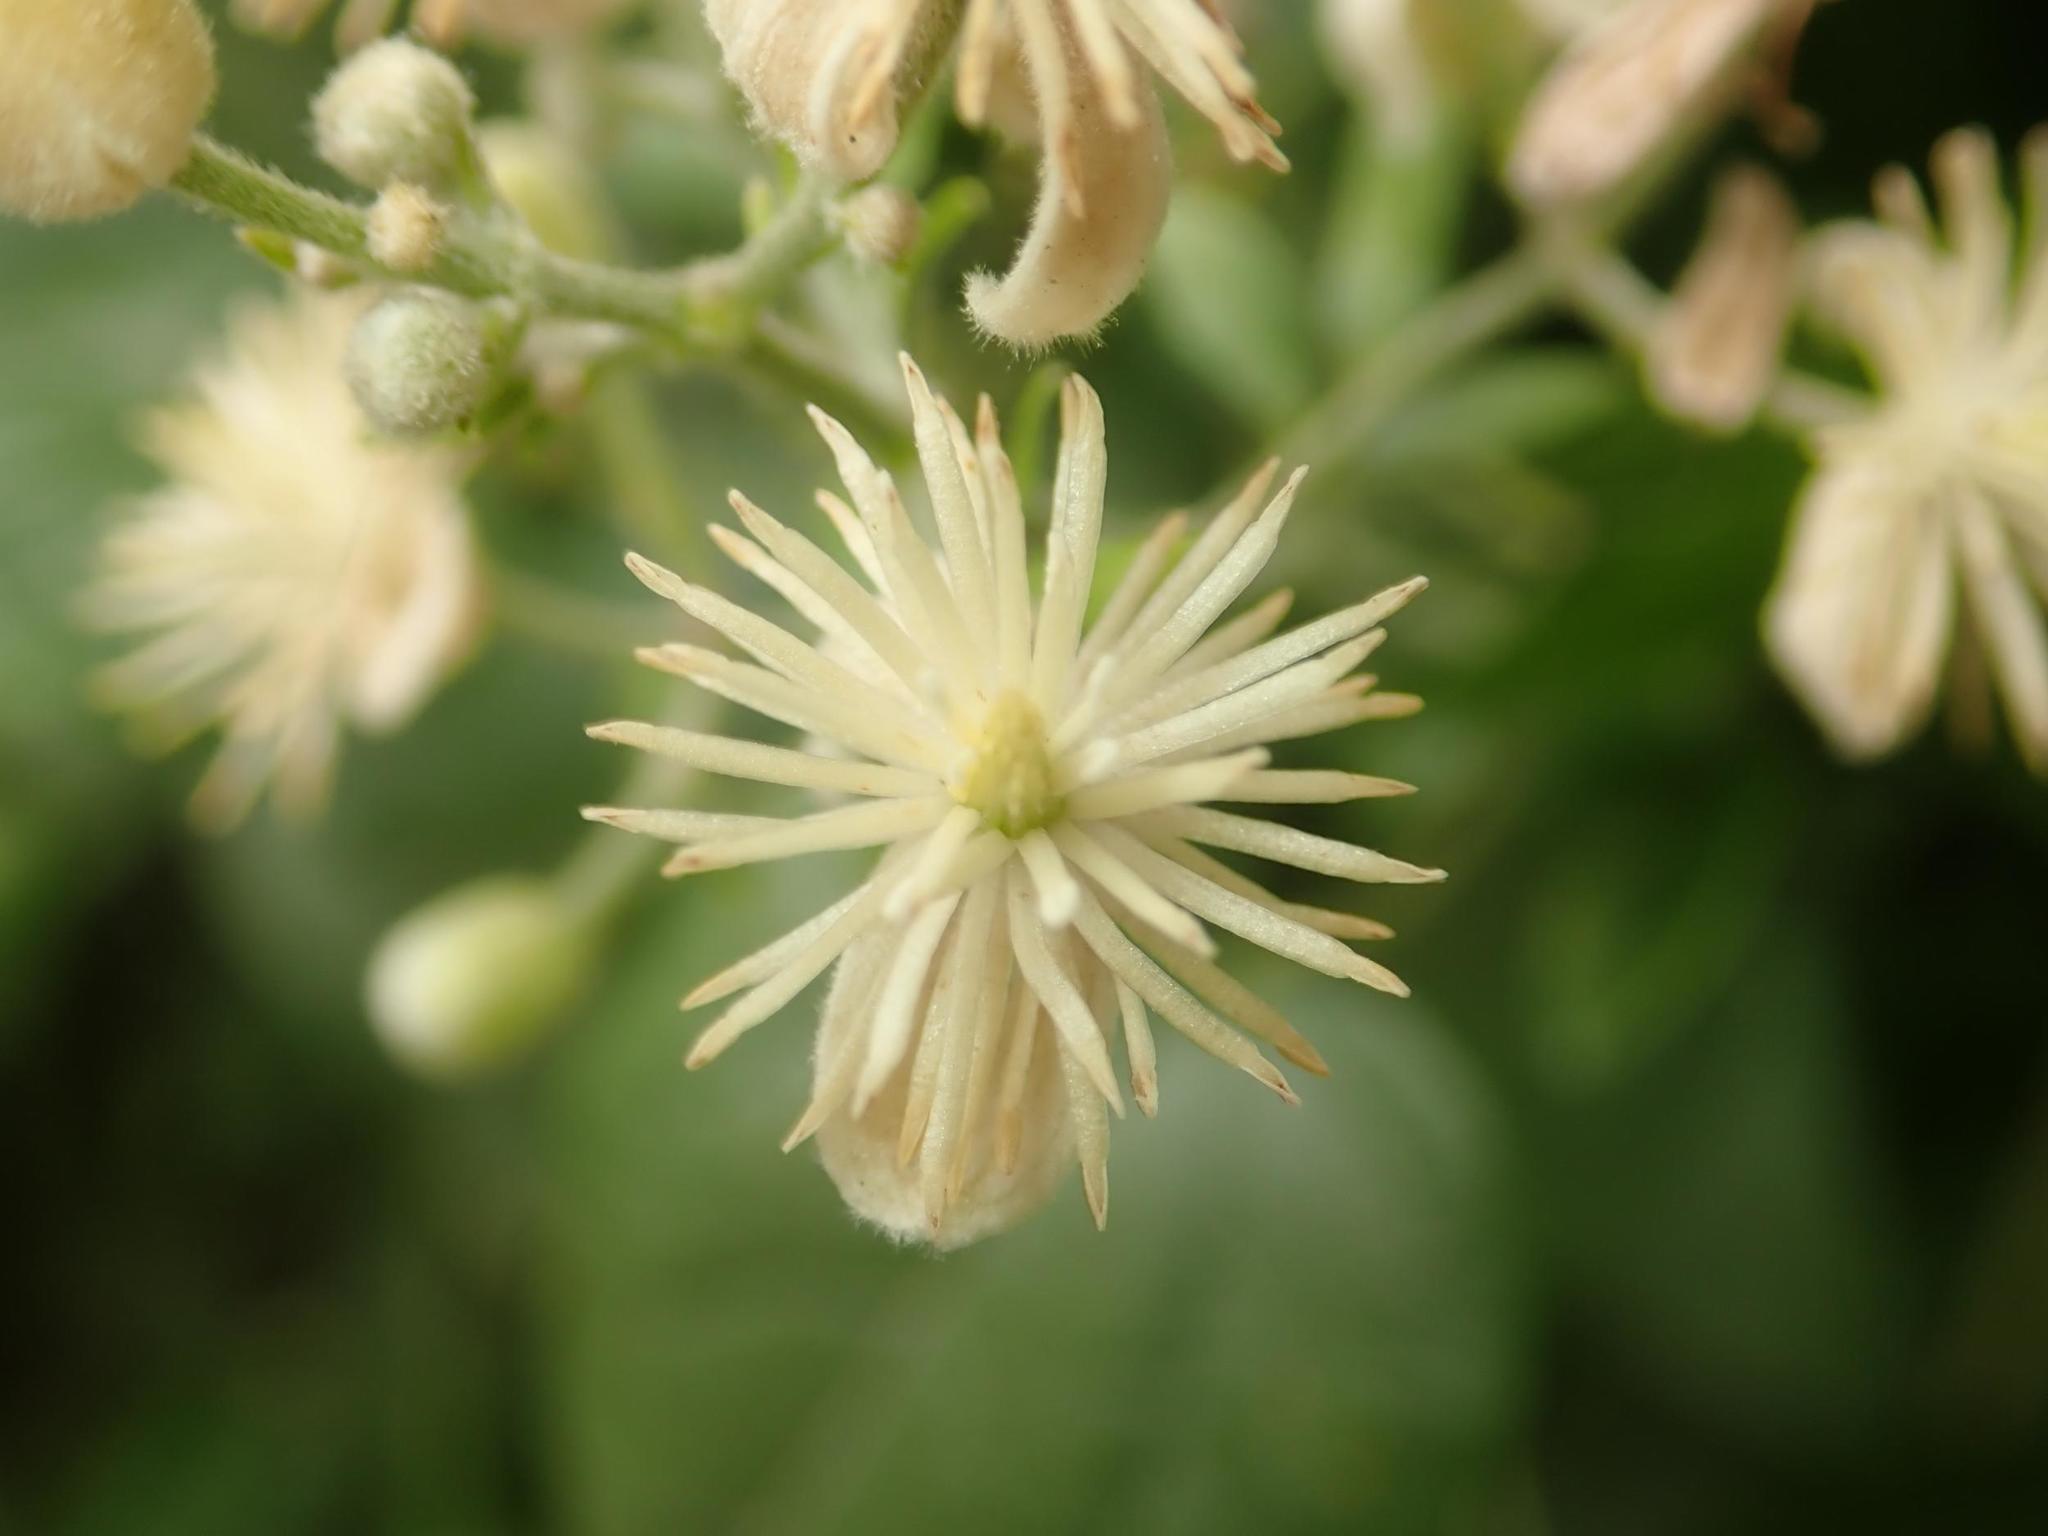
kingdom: Plantae
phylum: Tracheophyta
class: Magnoliopsida
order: Ranunculales
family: Ranunculaceae
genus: Clematis
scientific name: Clematis vitalba
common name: Evergreen clematis
